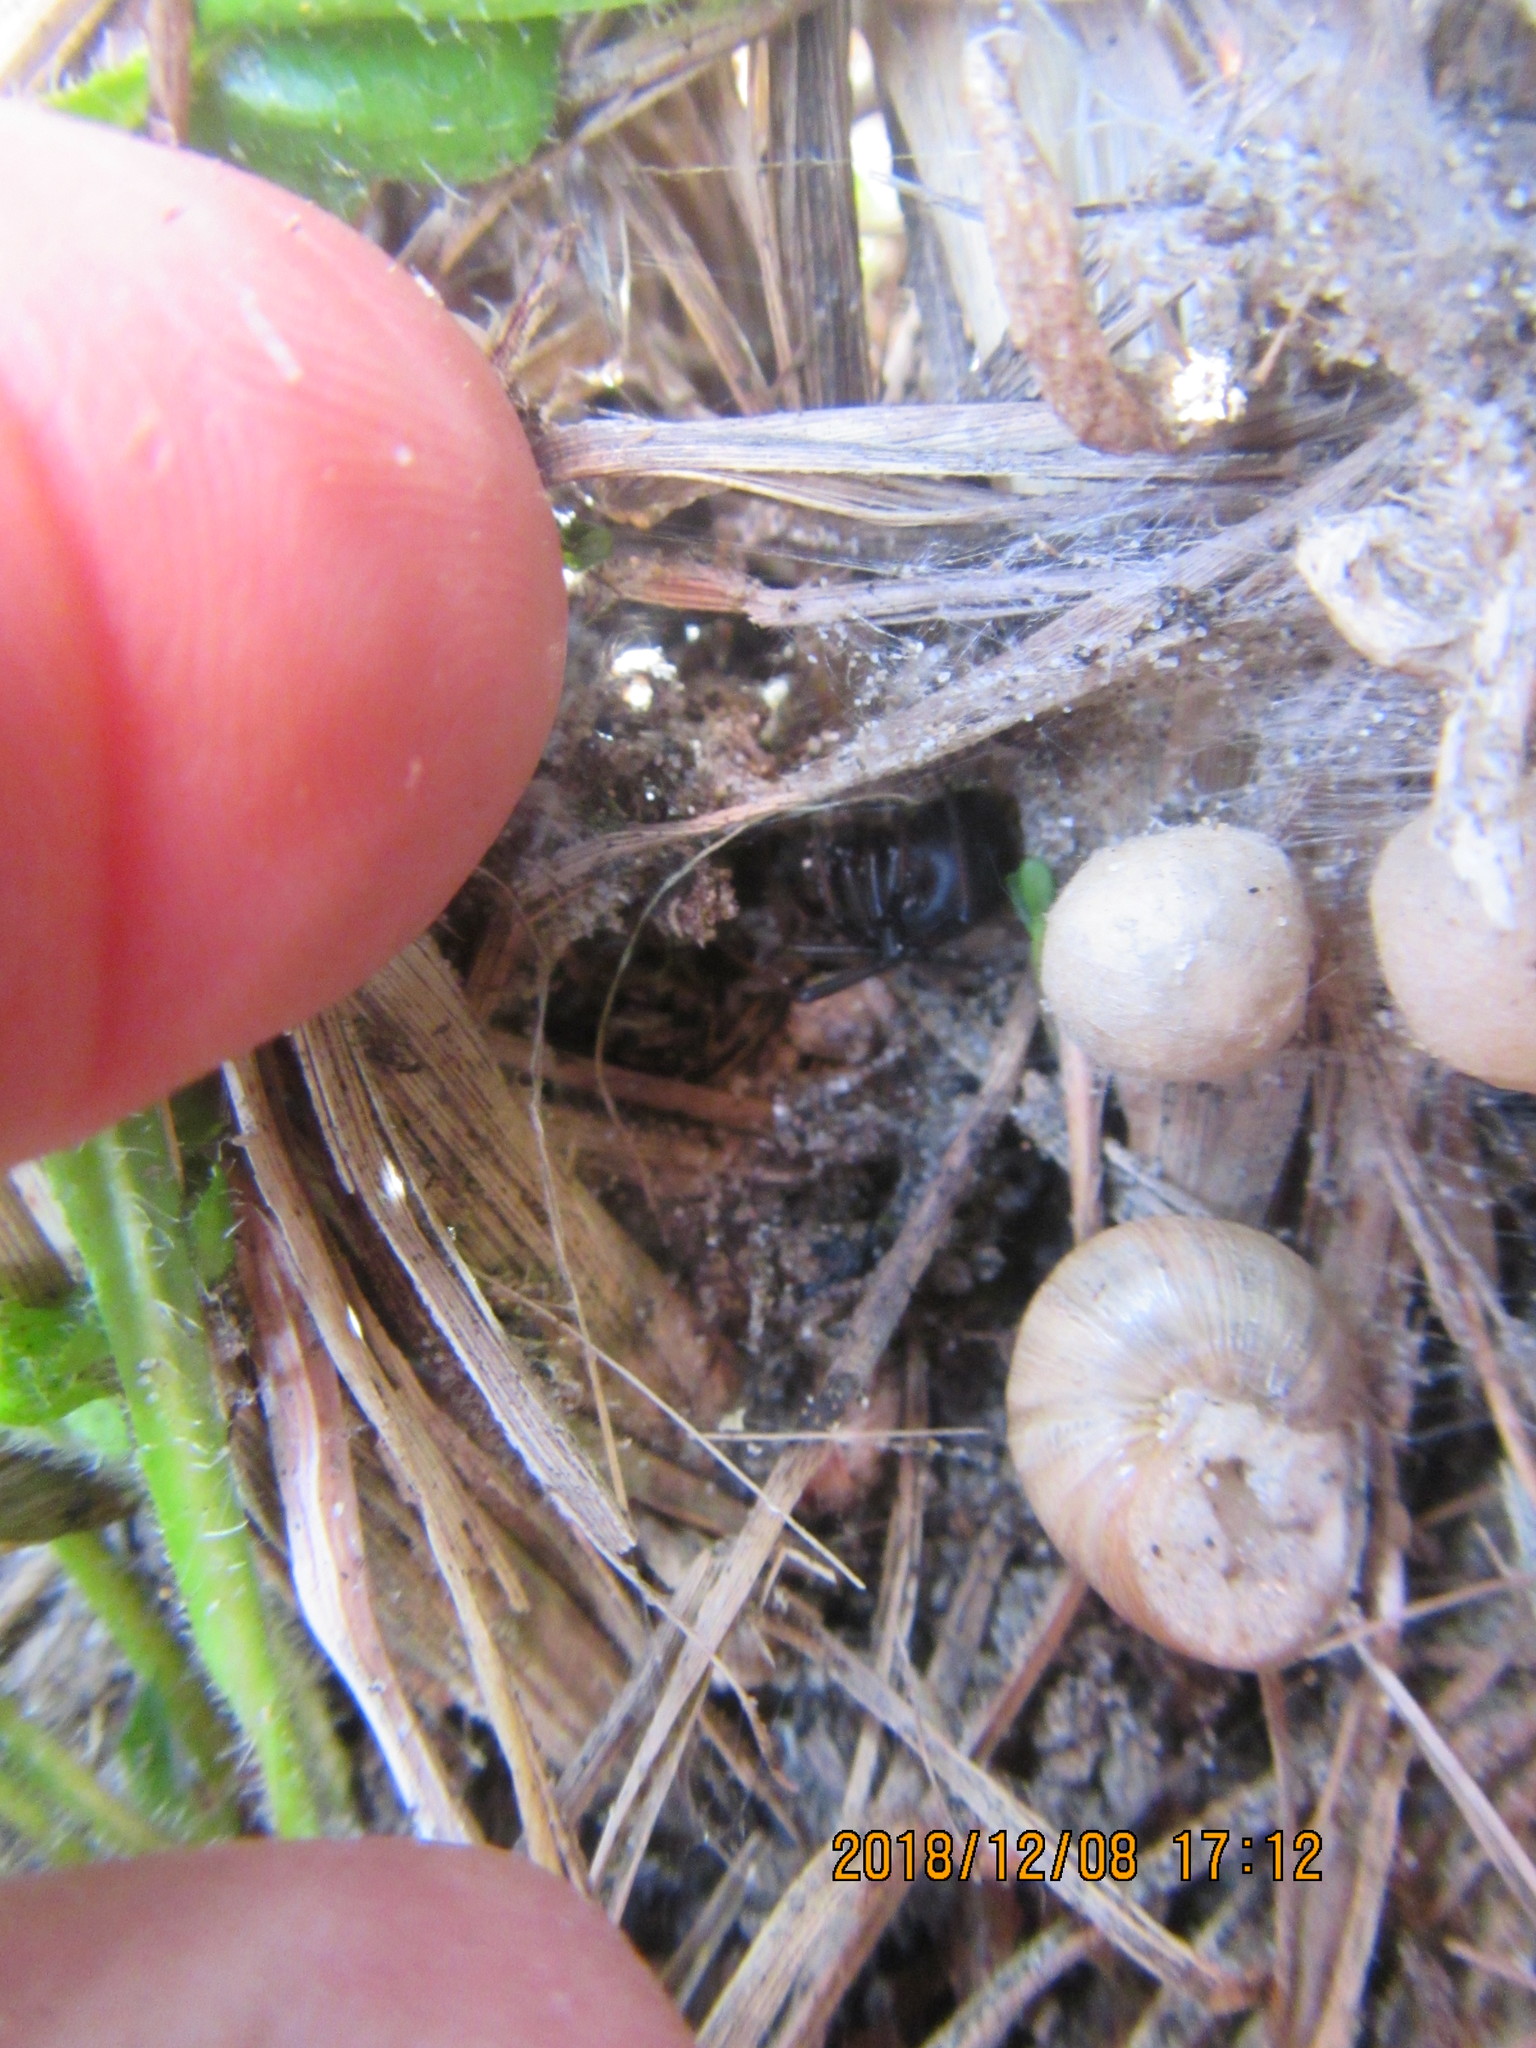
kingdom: Animalia
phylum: Arthropoda
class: Arachnida
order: Araneae
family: Theridiidae
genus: Latrodectus
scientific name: Latrodectus katipo
